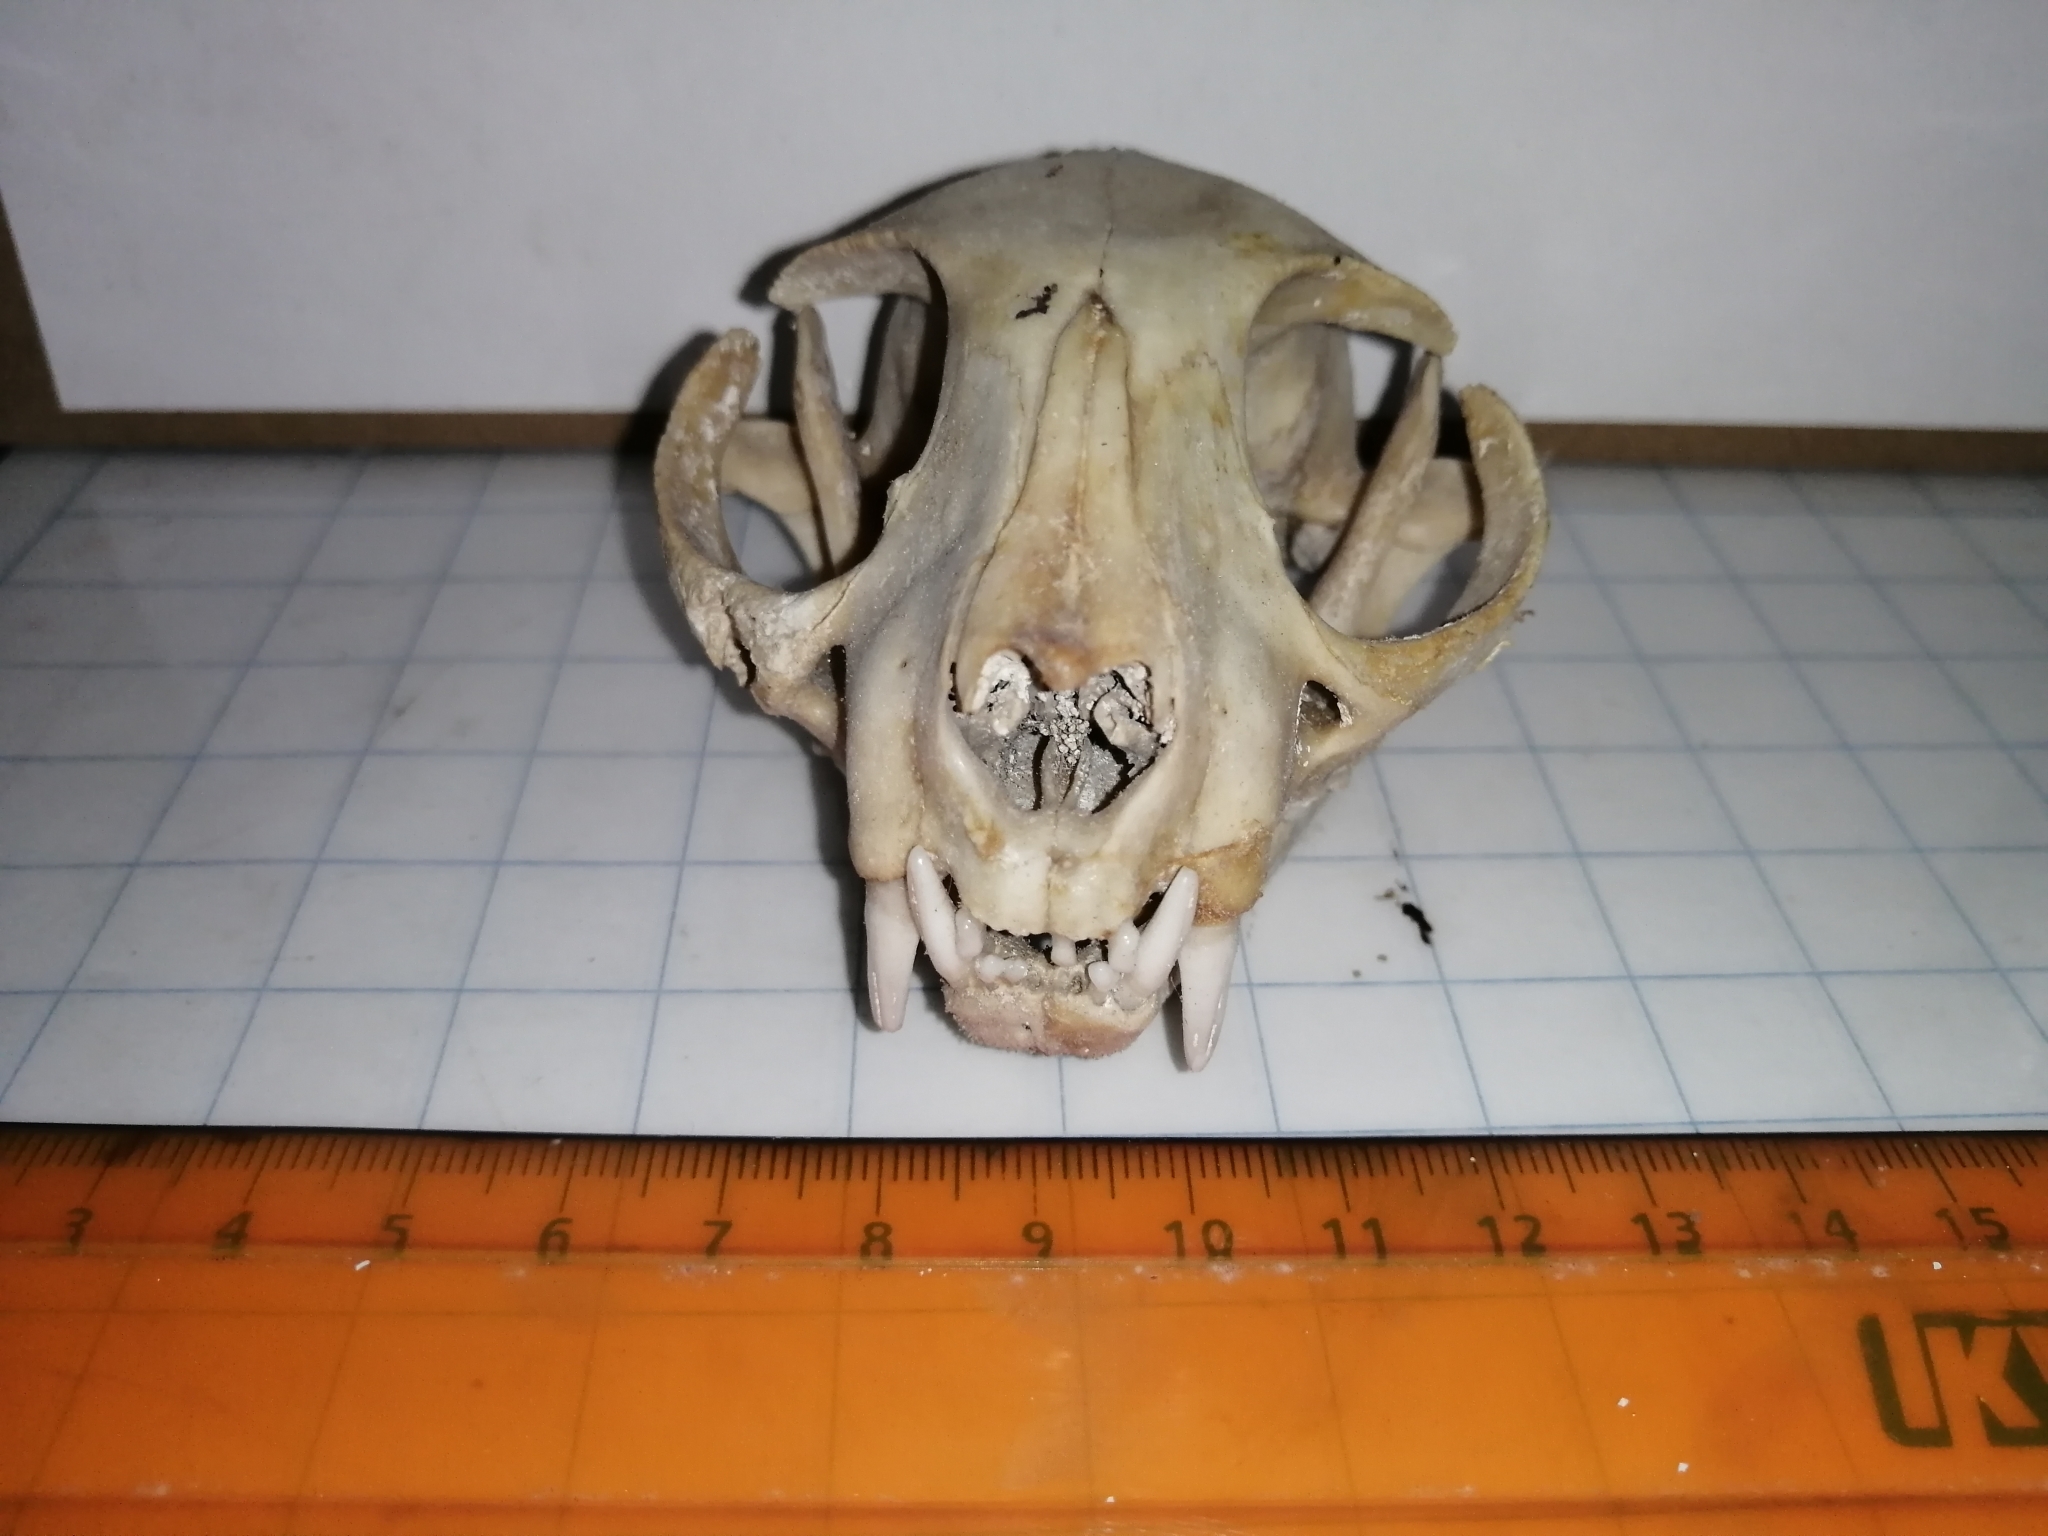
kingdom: Animalia
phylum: Chordata
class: Mammalia
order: Carnivora
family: Felidae
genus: Felis
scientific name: Felis catus
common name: Domestic cat
